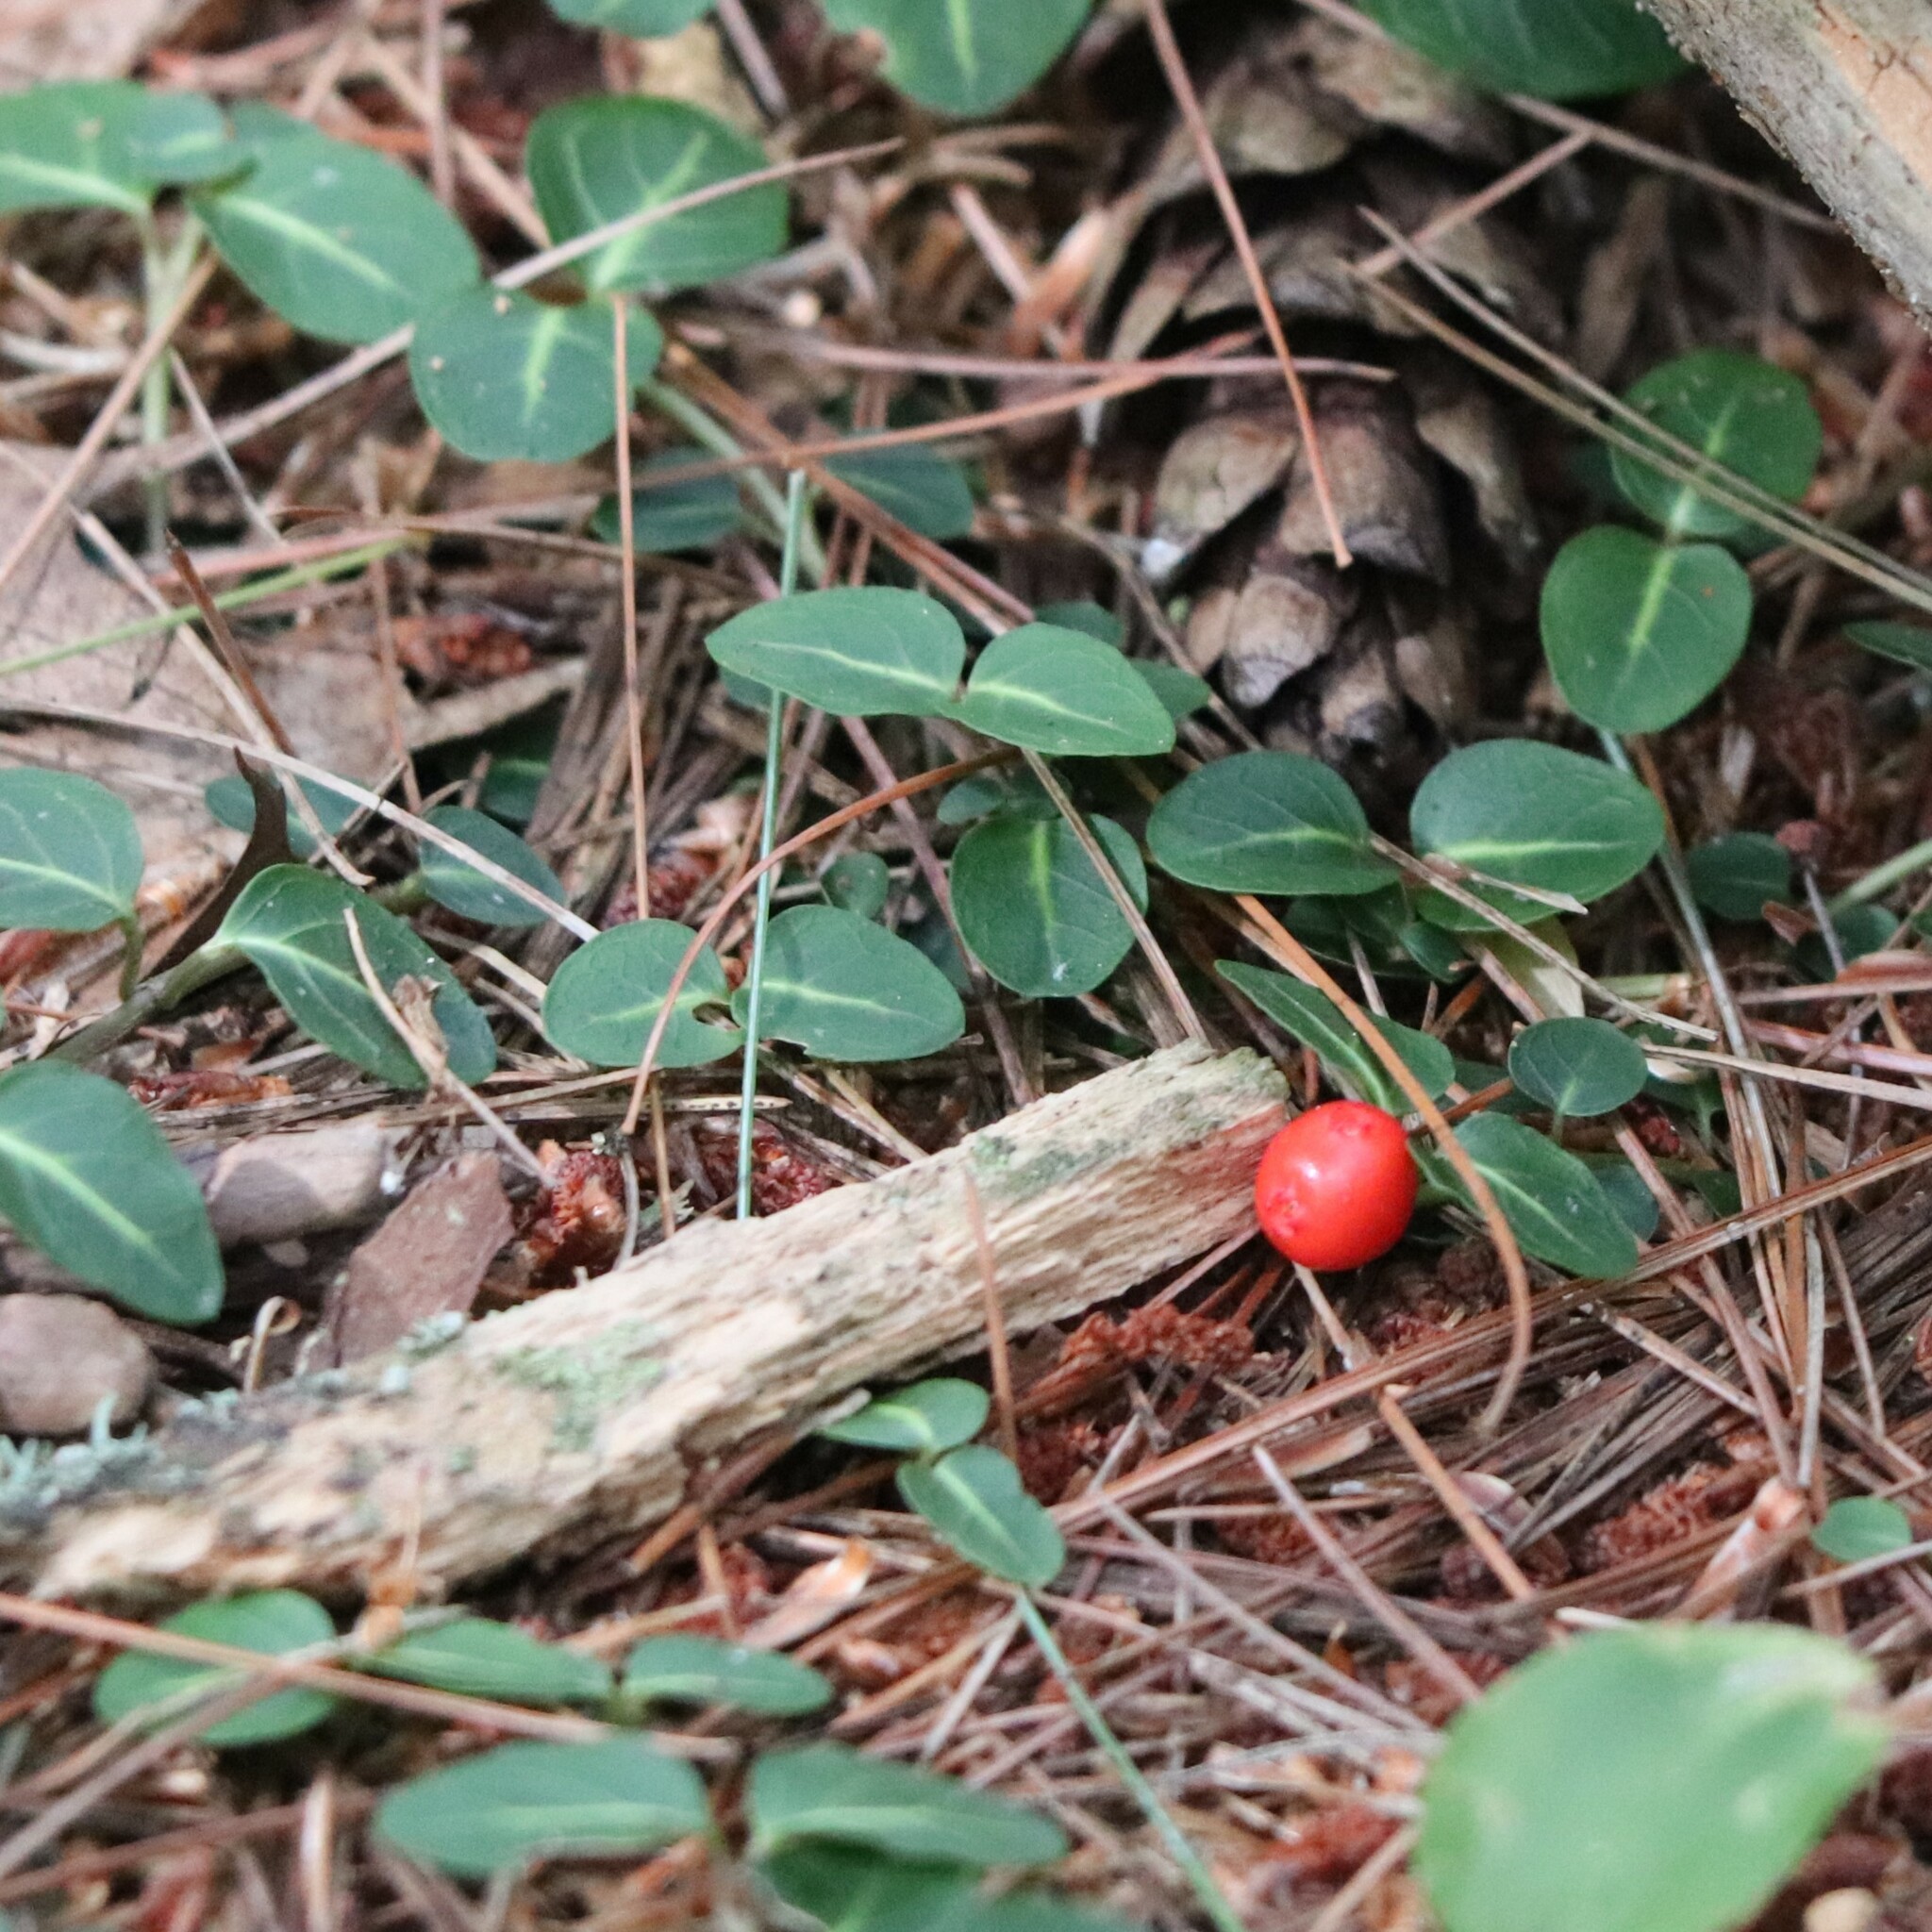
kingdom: Plantae
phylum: Tracheophyta
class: Magnoliopsida
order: Gentianales
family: Rubiaceae
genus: Mitchella
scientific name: Mitchella repens
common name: Partridge-berry
